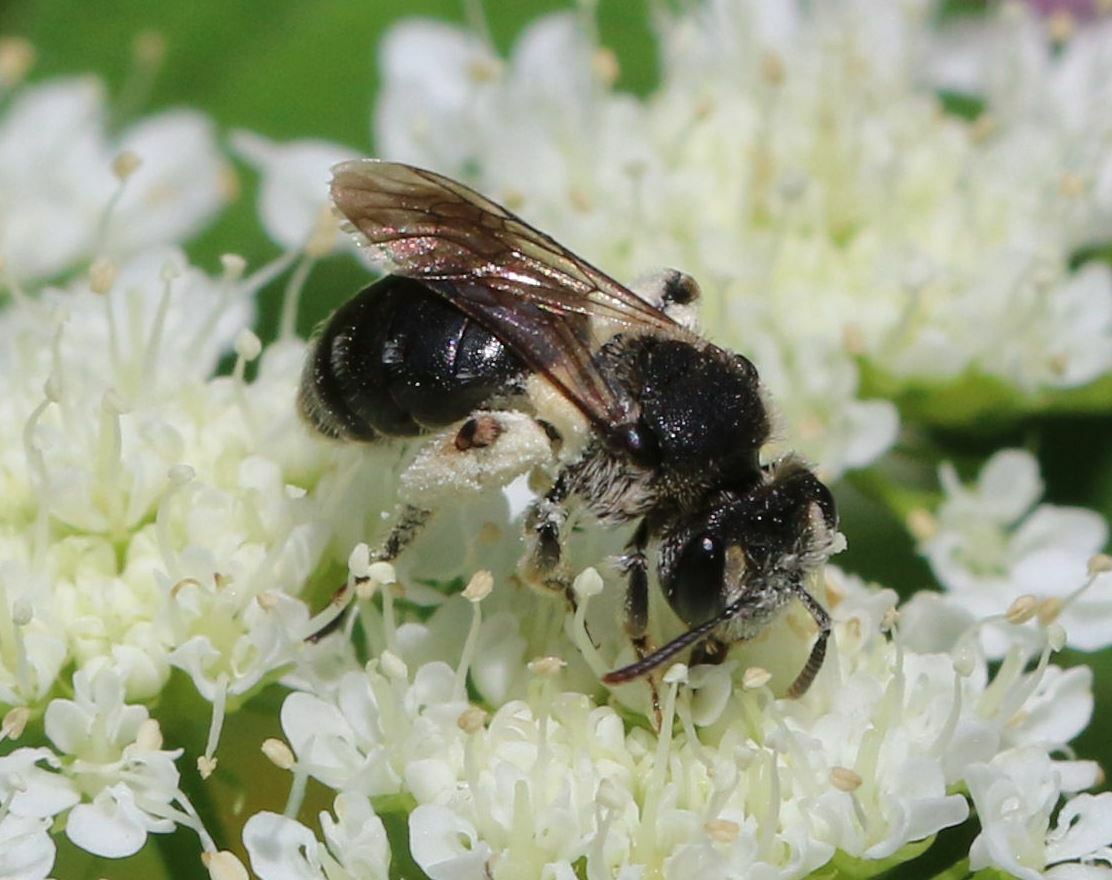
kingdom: Animalia
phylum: Arthropoda
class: Insecta
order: Hymenoptera
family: Andrenidae
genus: Andrena
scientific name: Andrena colletiformis
